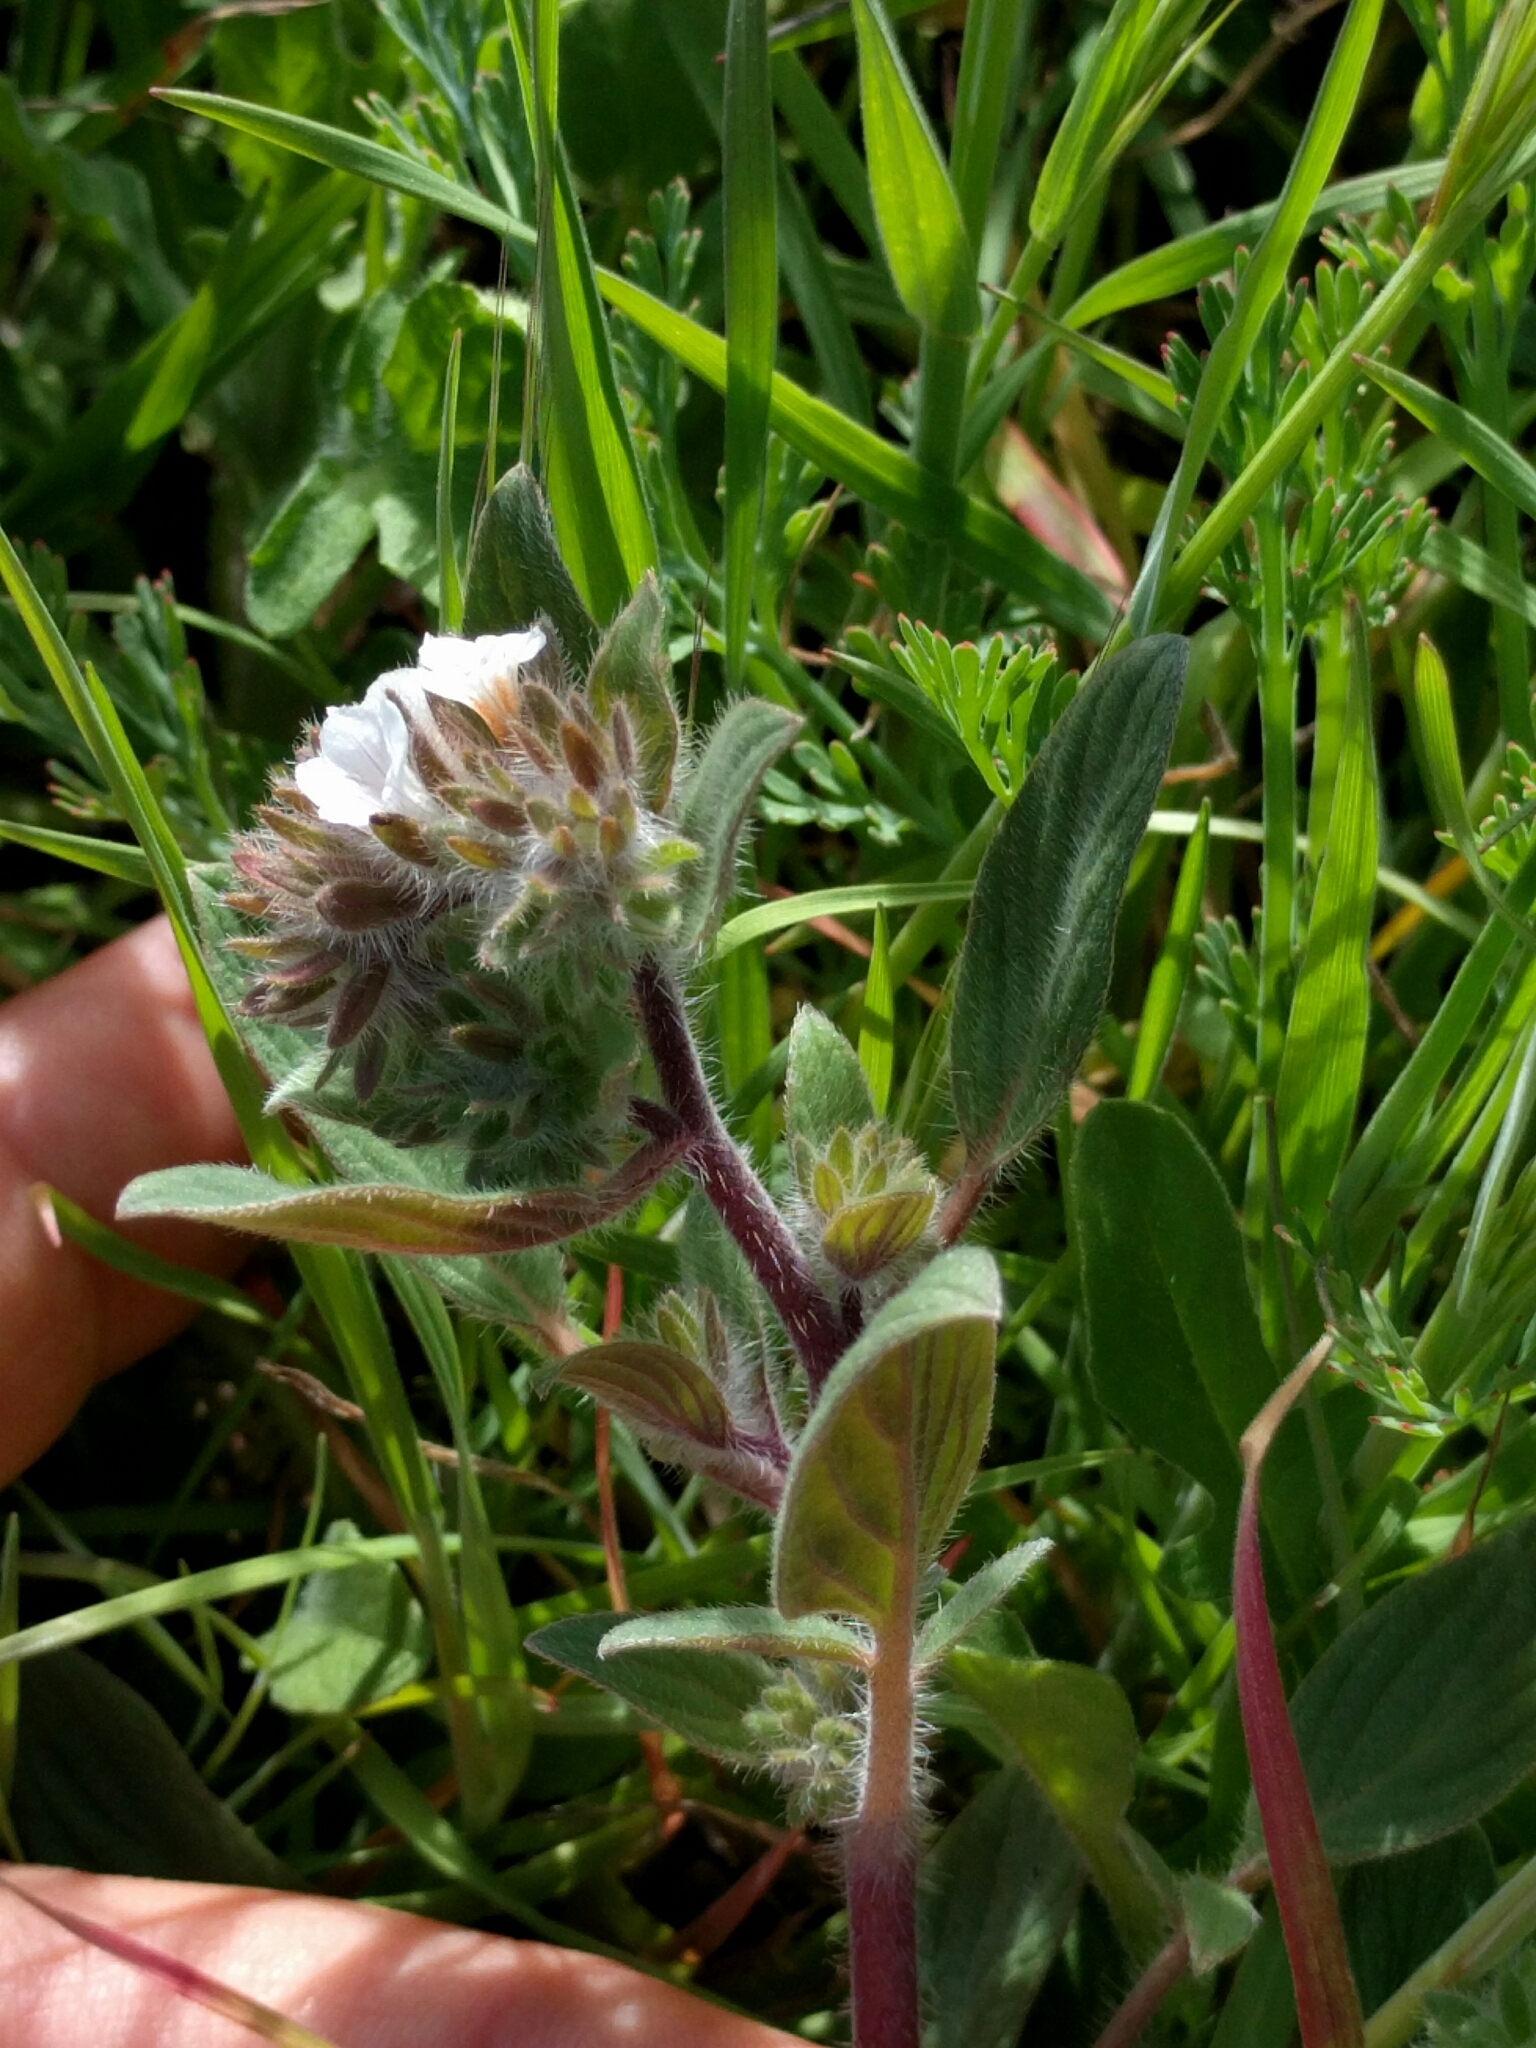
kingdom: Plantae
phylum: Tracheophyta
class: Magnoliopsida
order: Boraginales
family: Hydrophyllaceae
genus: Phacelia
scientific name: Phacelia phacelioides
